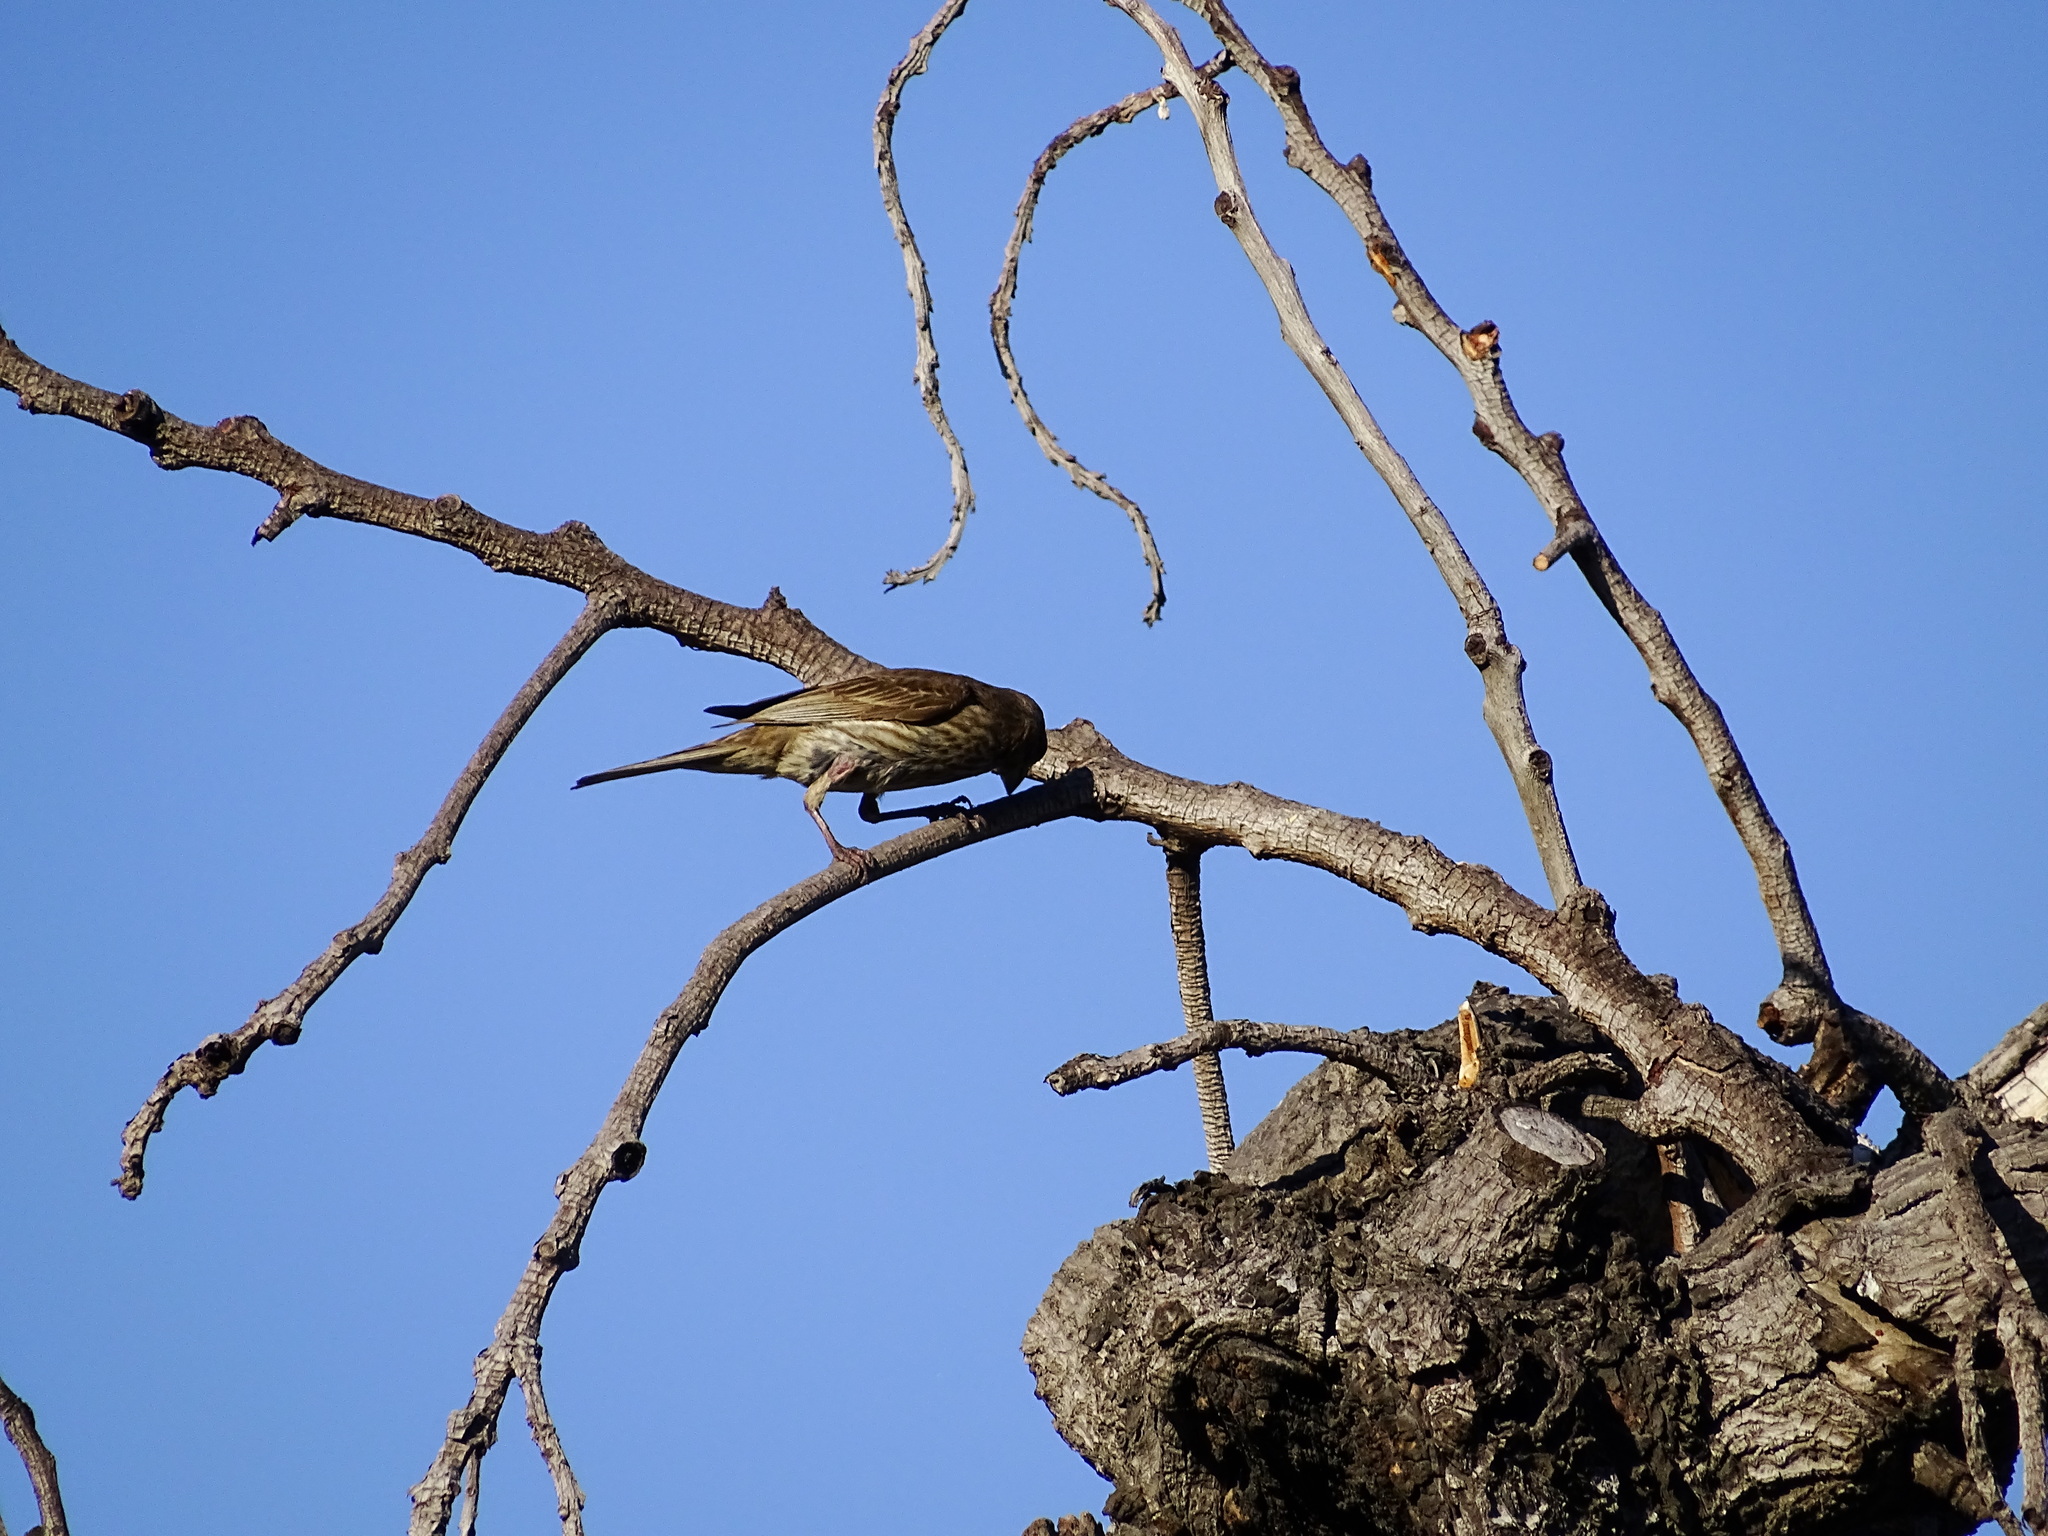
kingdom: Animalia
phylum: Chordata
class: Aves
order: Passeriformes
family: Fringillidae
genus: Haemorhous
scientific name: Haemorhous mexicanus
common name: House finch
